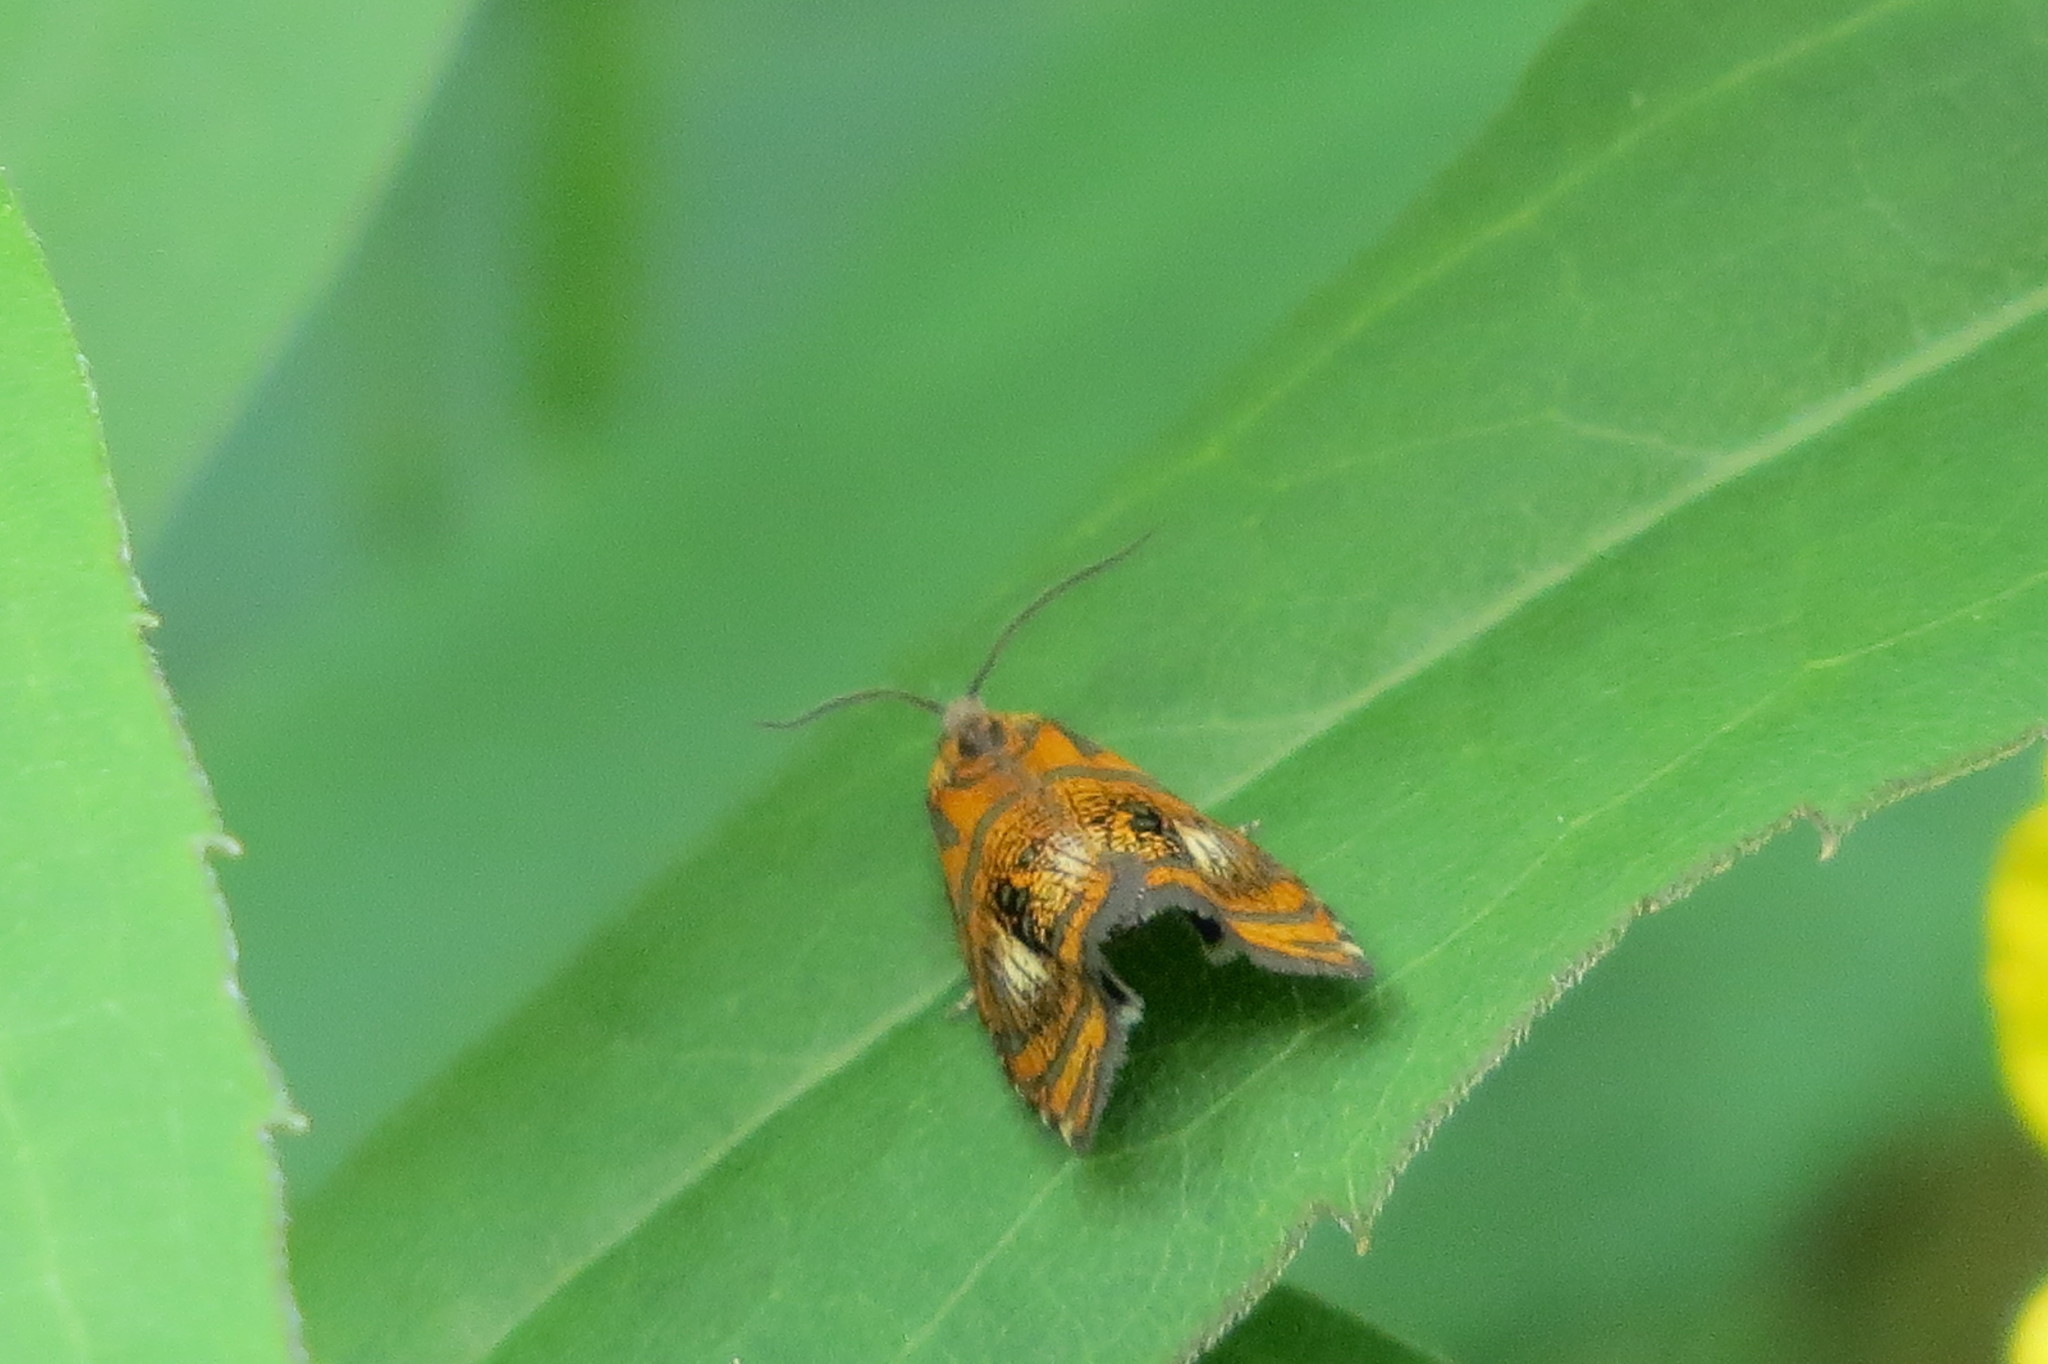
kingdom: Animalia
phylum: Arthropoda
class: Insecta
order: Lepidoptera
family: Tortricidae
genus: Olethreutes
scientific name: Olethreutes arcuella
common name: Arched marble
